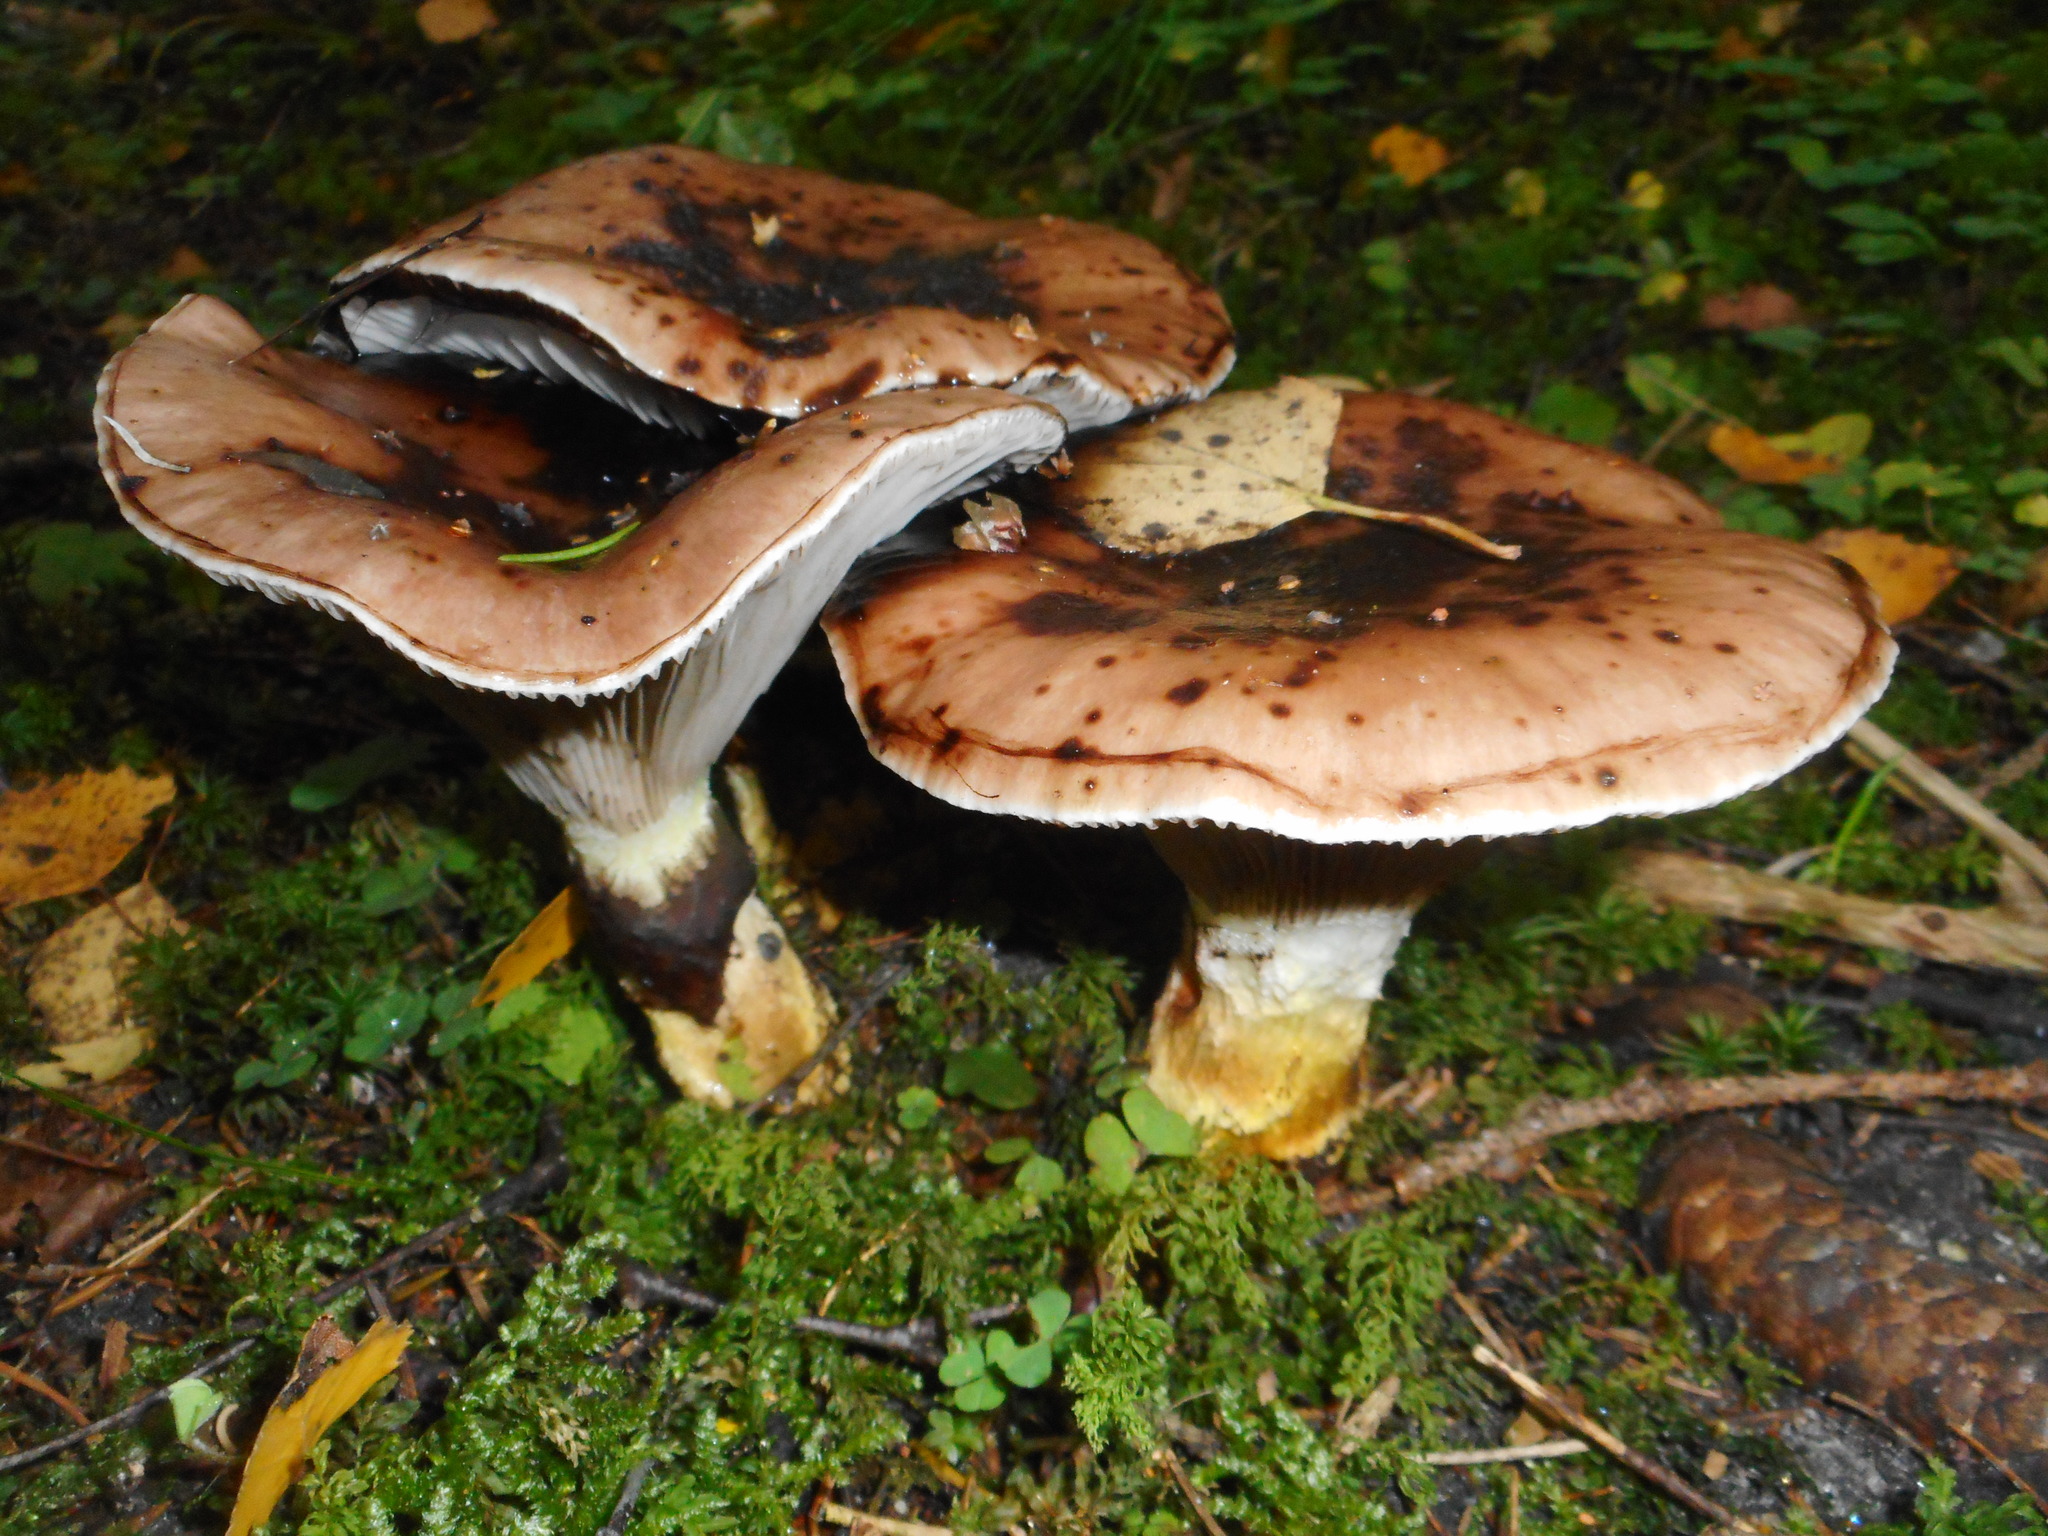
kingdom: Fungi
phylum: Basidiomycota
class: Agaricomycetes
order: Boletales
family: Gomphidiaceae
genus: Gomphidius
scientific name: Gomphidius glutinosus
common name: Slimy spike
